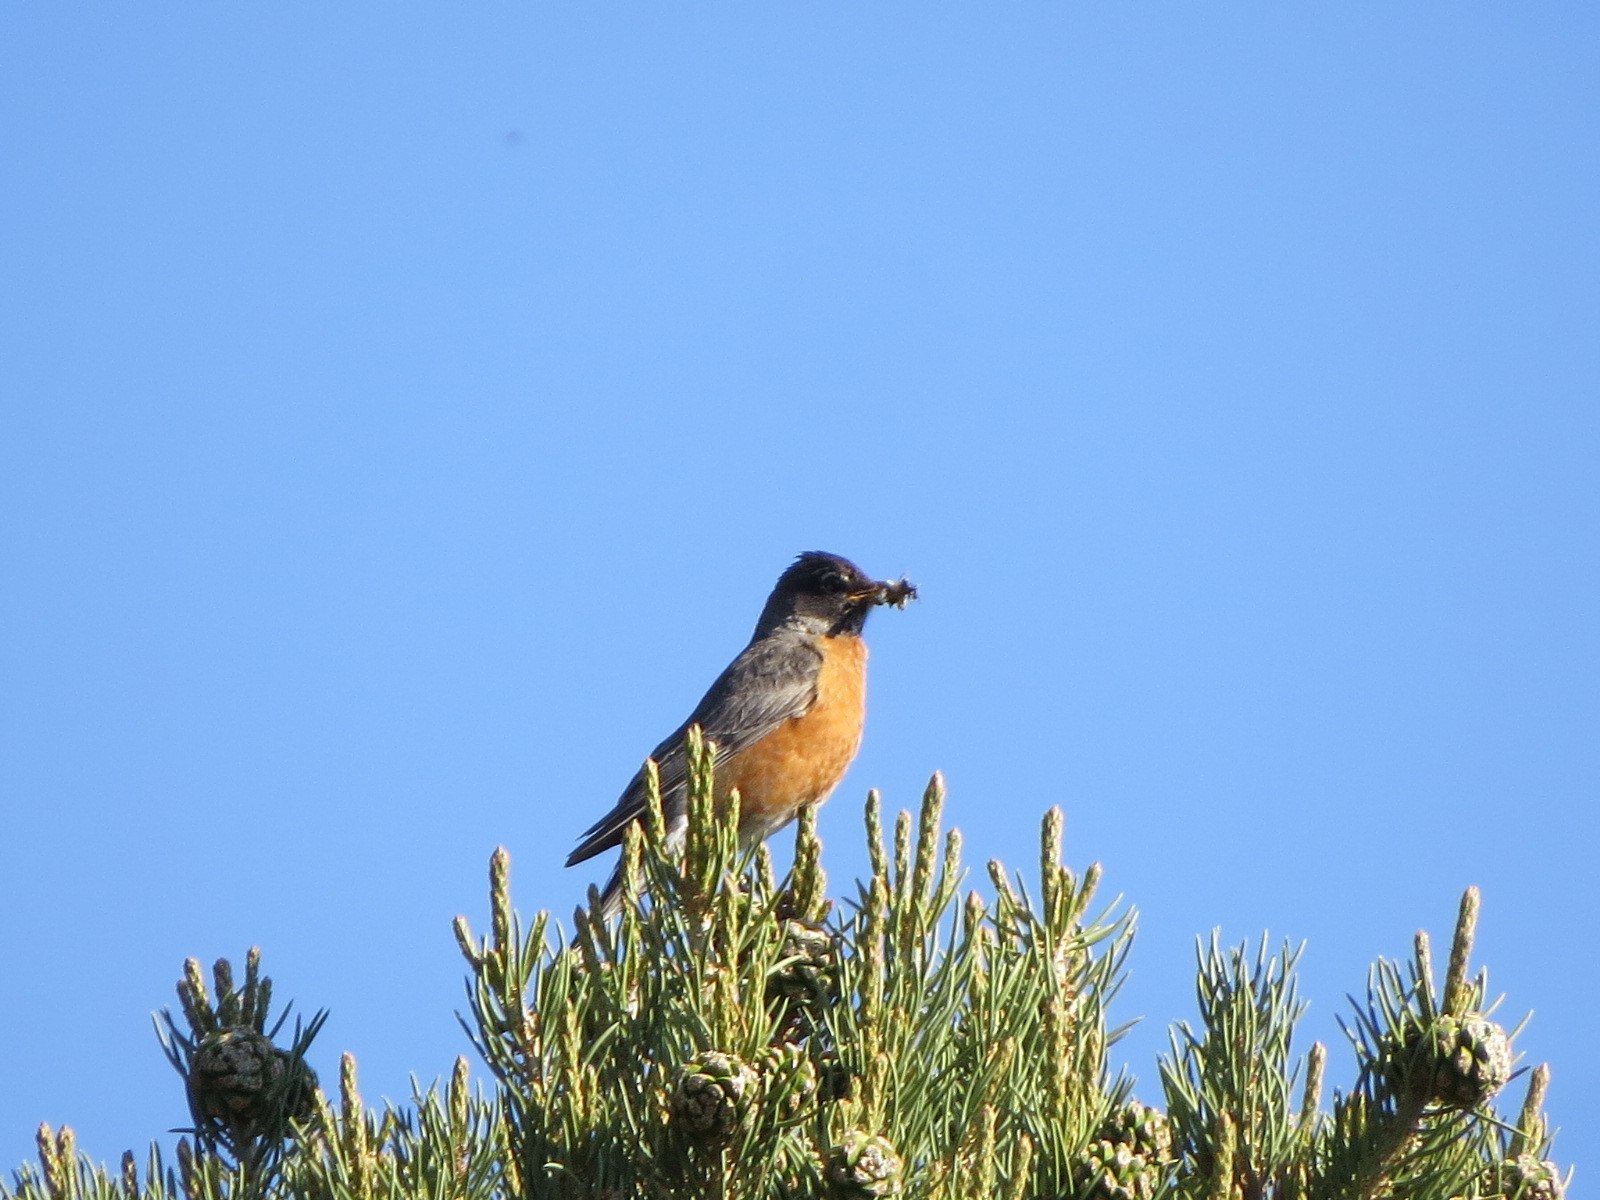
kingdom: Animalia
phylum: Chordata
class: Aves
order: Passeriformes
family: Turdidae
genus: Turdus
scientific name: Turdus migratorius
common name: American robin
